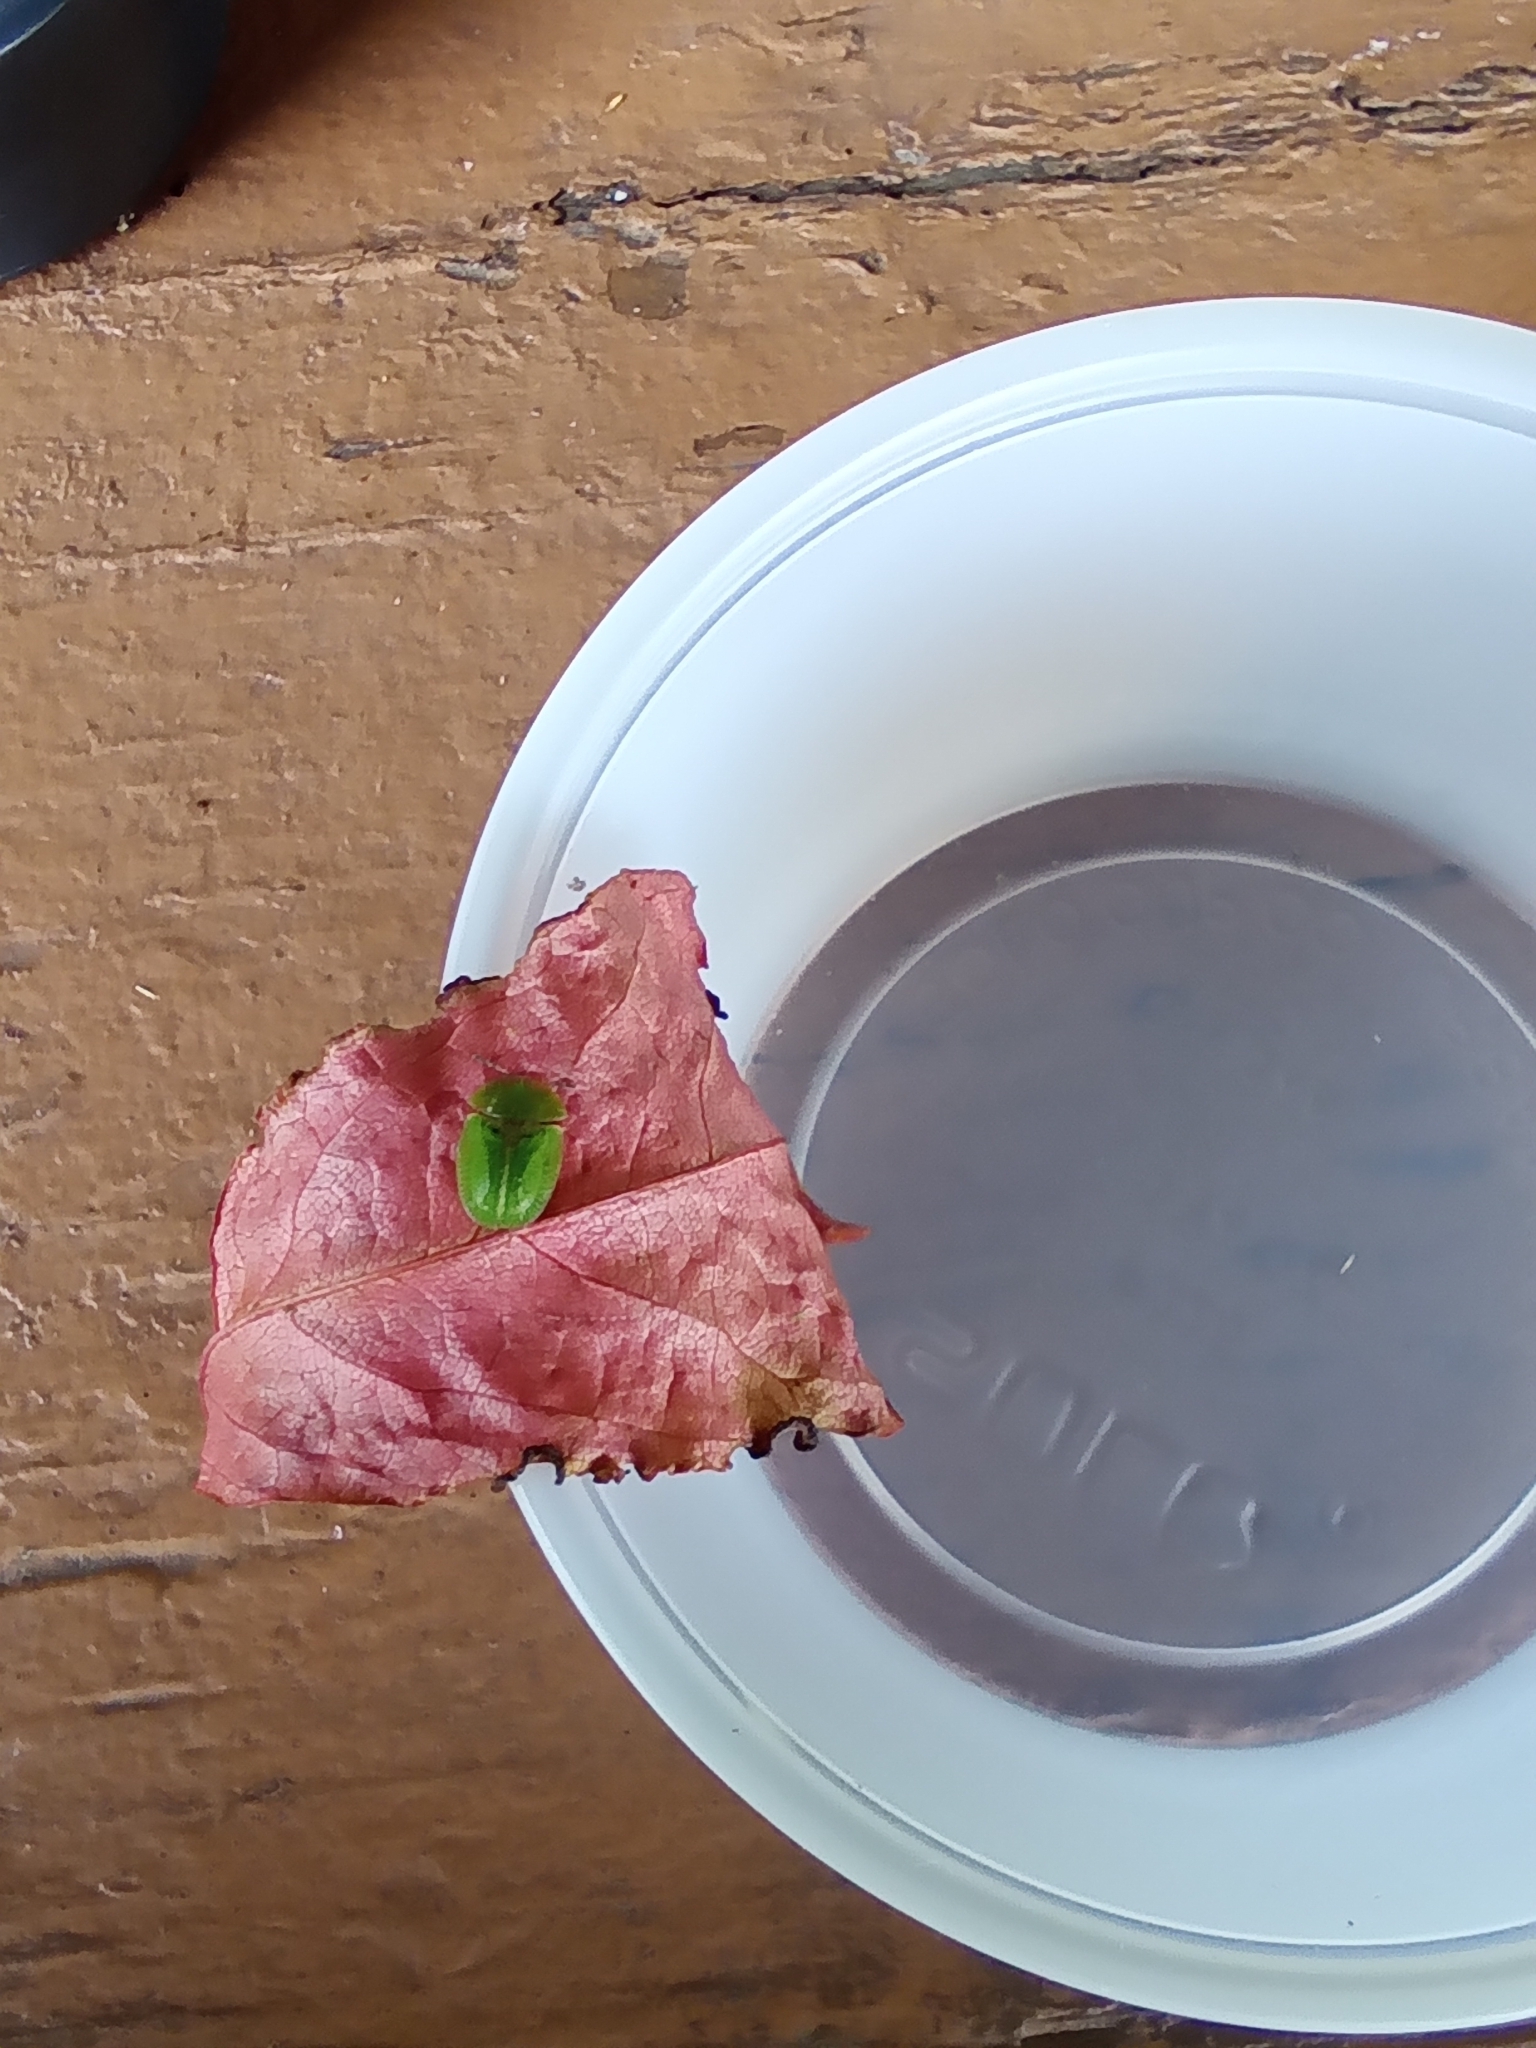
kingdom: Animalia
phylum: Arthropoda
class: Insecta
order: Coleoptera
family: Chrysomelidae
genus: Cassida
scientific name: Cassida rubiginosa
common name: Thistle tortoise beetle
